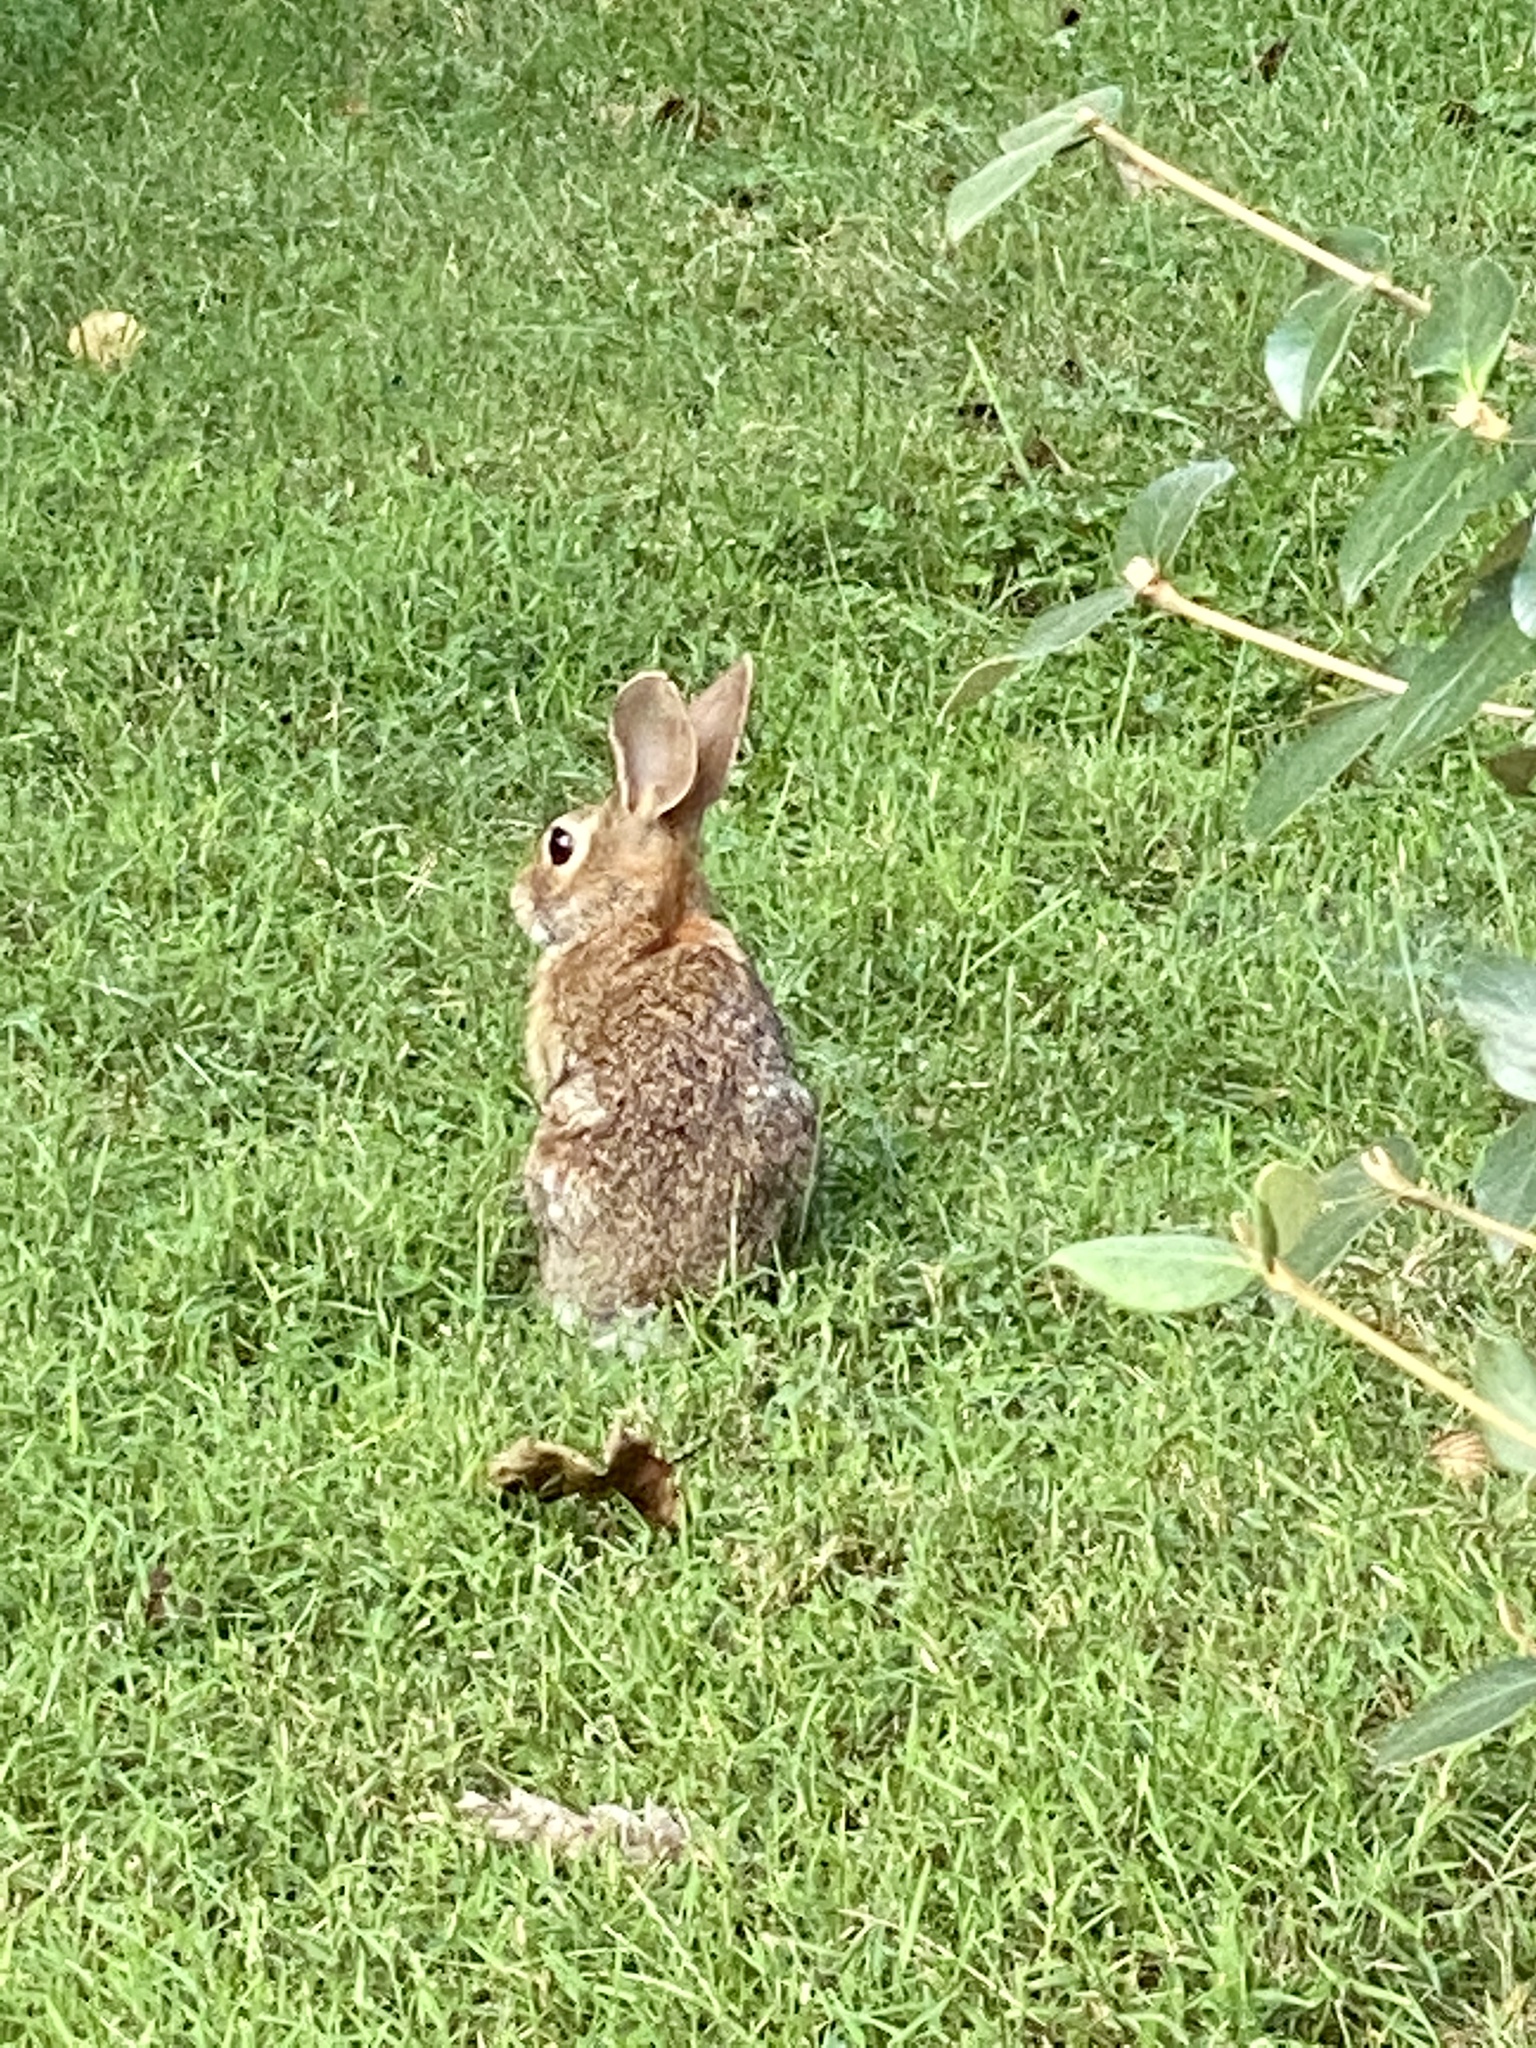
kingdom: Animalia
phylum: Chordata
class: Mammalia
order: Lagomorpha
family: Leporidae
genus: Sylvilagus
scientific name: Sylvilagus floridanus
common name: Eastern cottontail
